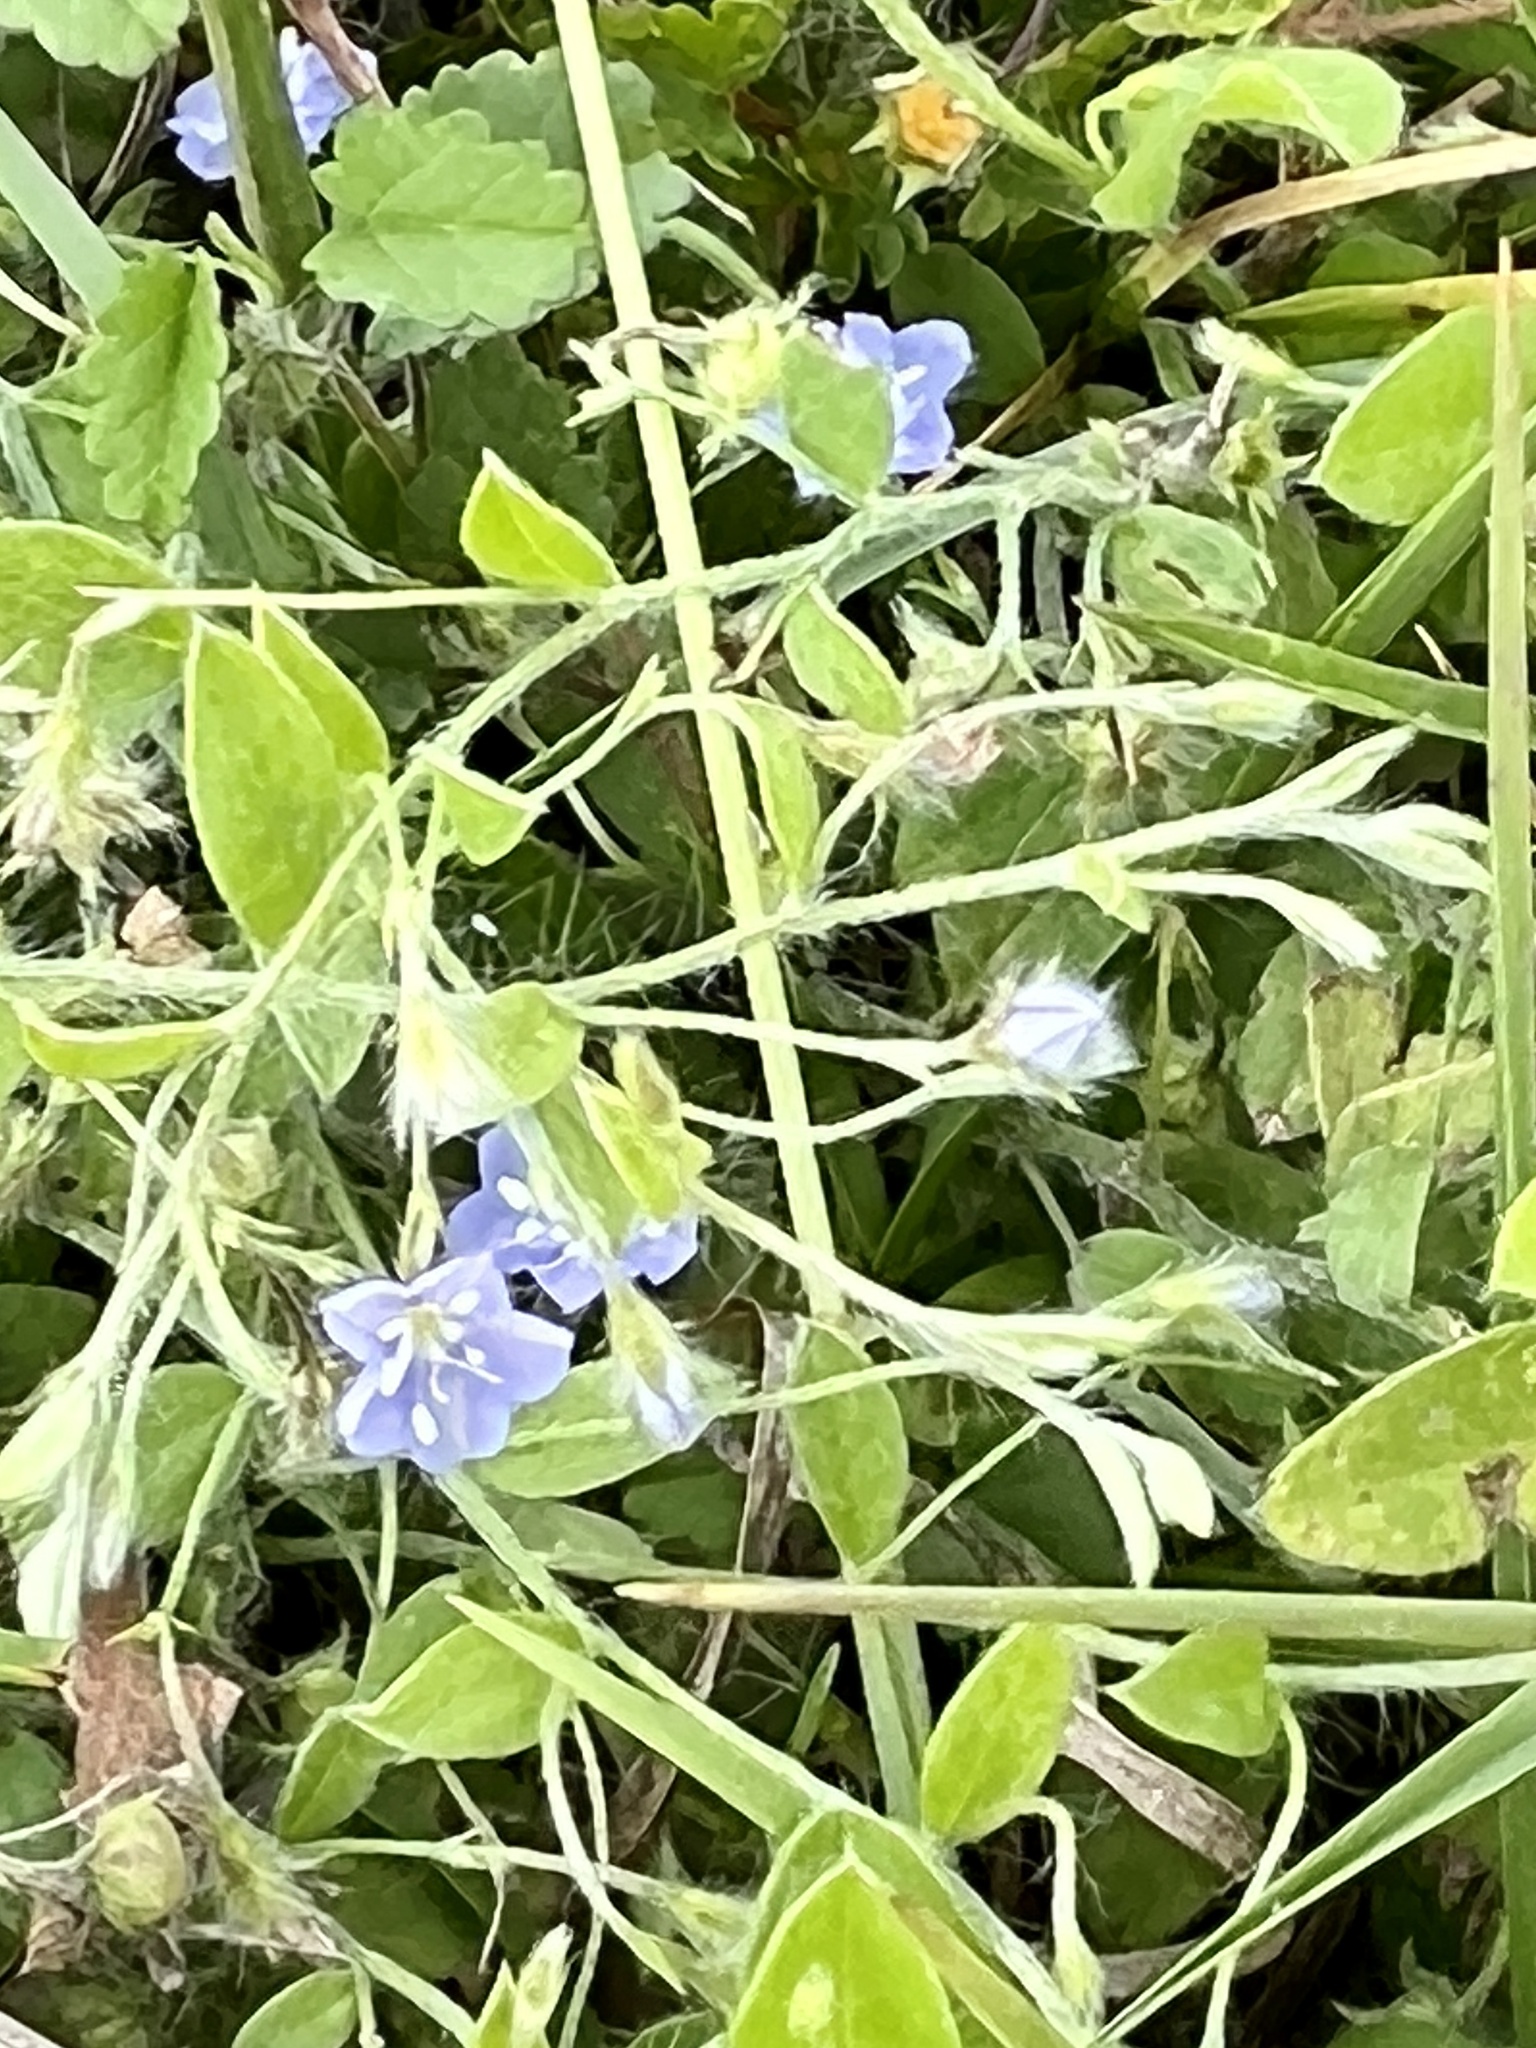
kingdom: Plantae
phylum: Tracheophyta
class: Magnoliopsida
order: Solanales
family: Convolvulaceae
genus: Evolvulus
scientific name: Evolvulus alsinoides
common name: Slender dwarf morning-glory
